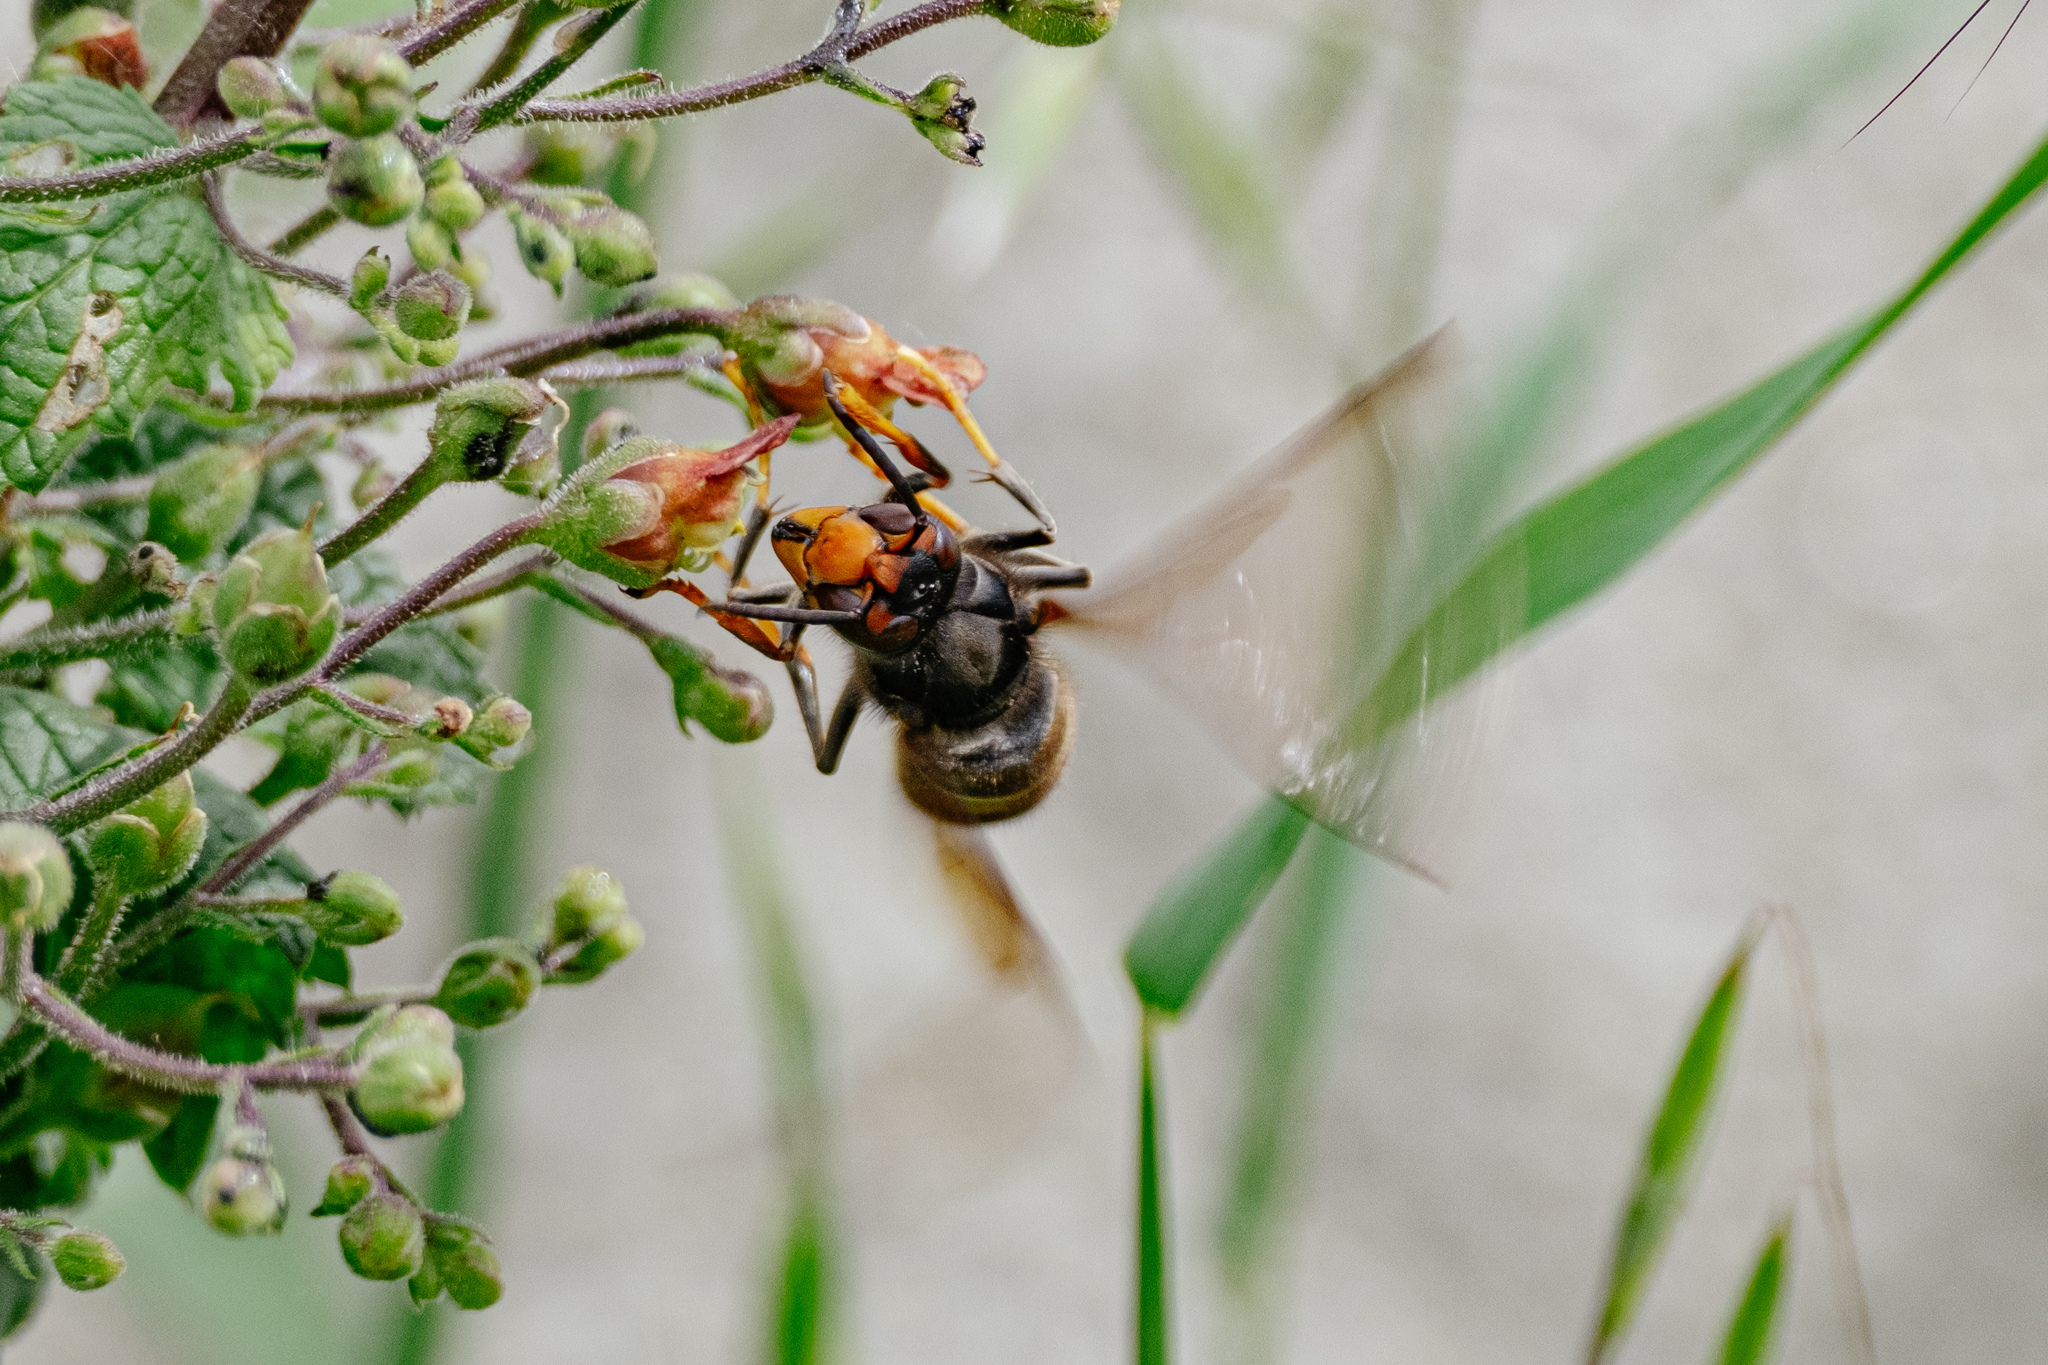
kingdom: Animalia
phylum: Arthropoda
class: Insecta
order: Hymenoptera
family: Vespidae
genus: Vespa
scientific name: Vespa velutina
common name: Asian hornet
